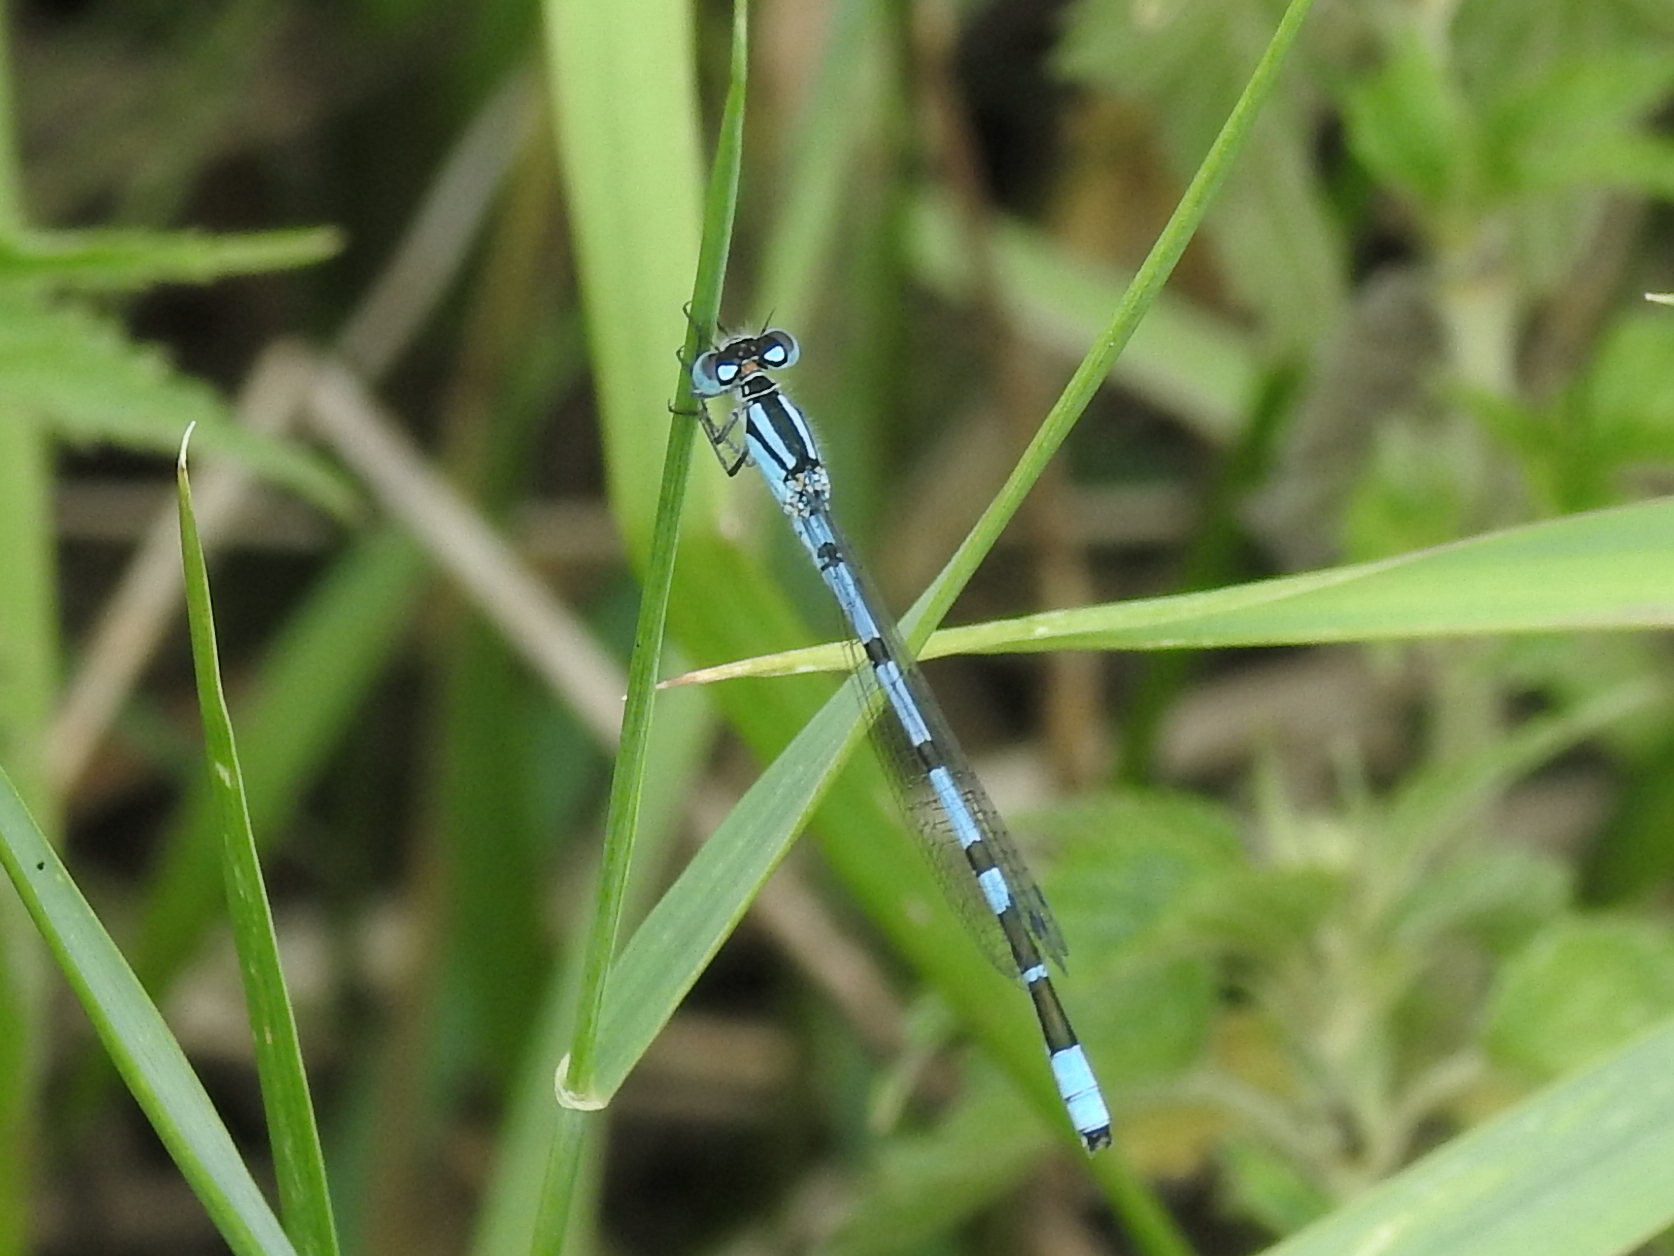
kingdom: Animalia
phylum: Arthropoda
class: Insecta
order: Odonata
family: Coenagrionidae
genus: Enallagma
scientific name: Enallagma cyathigerum
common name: Common blue damselfly
